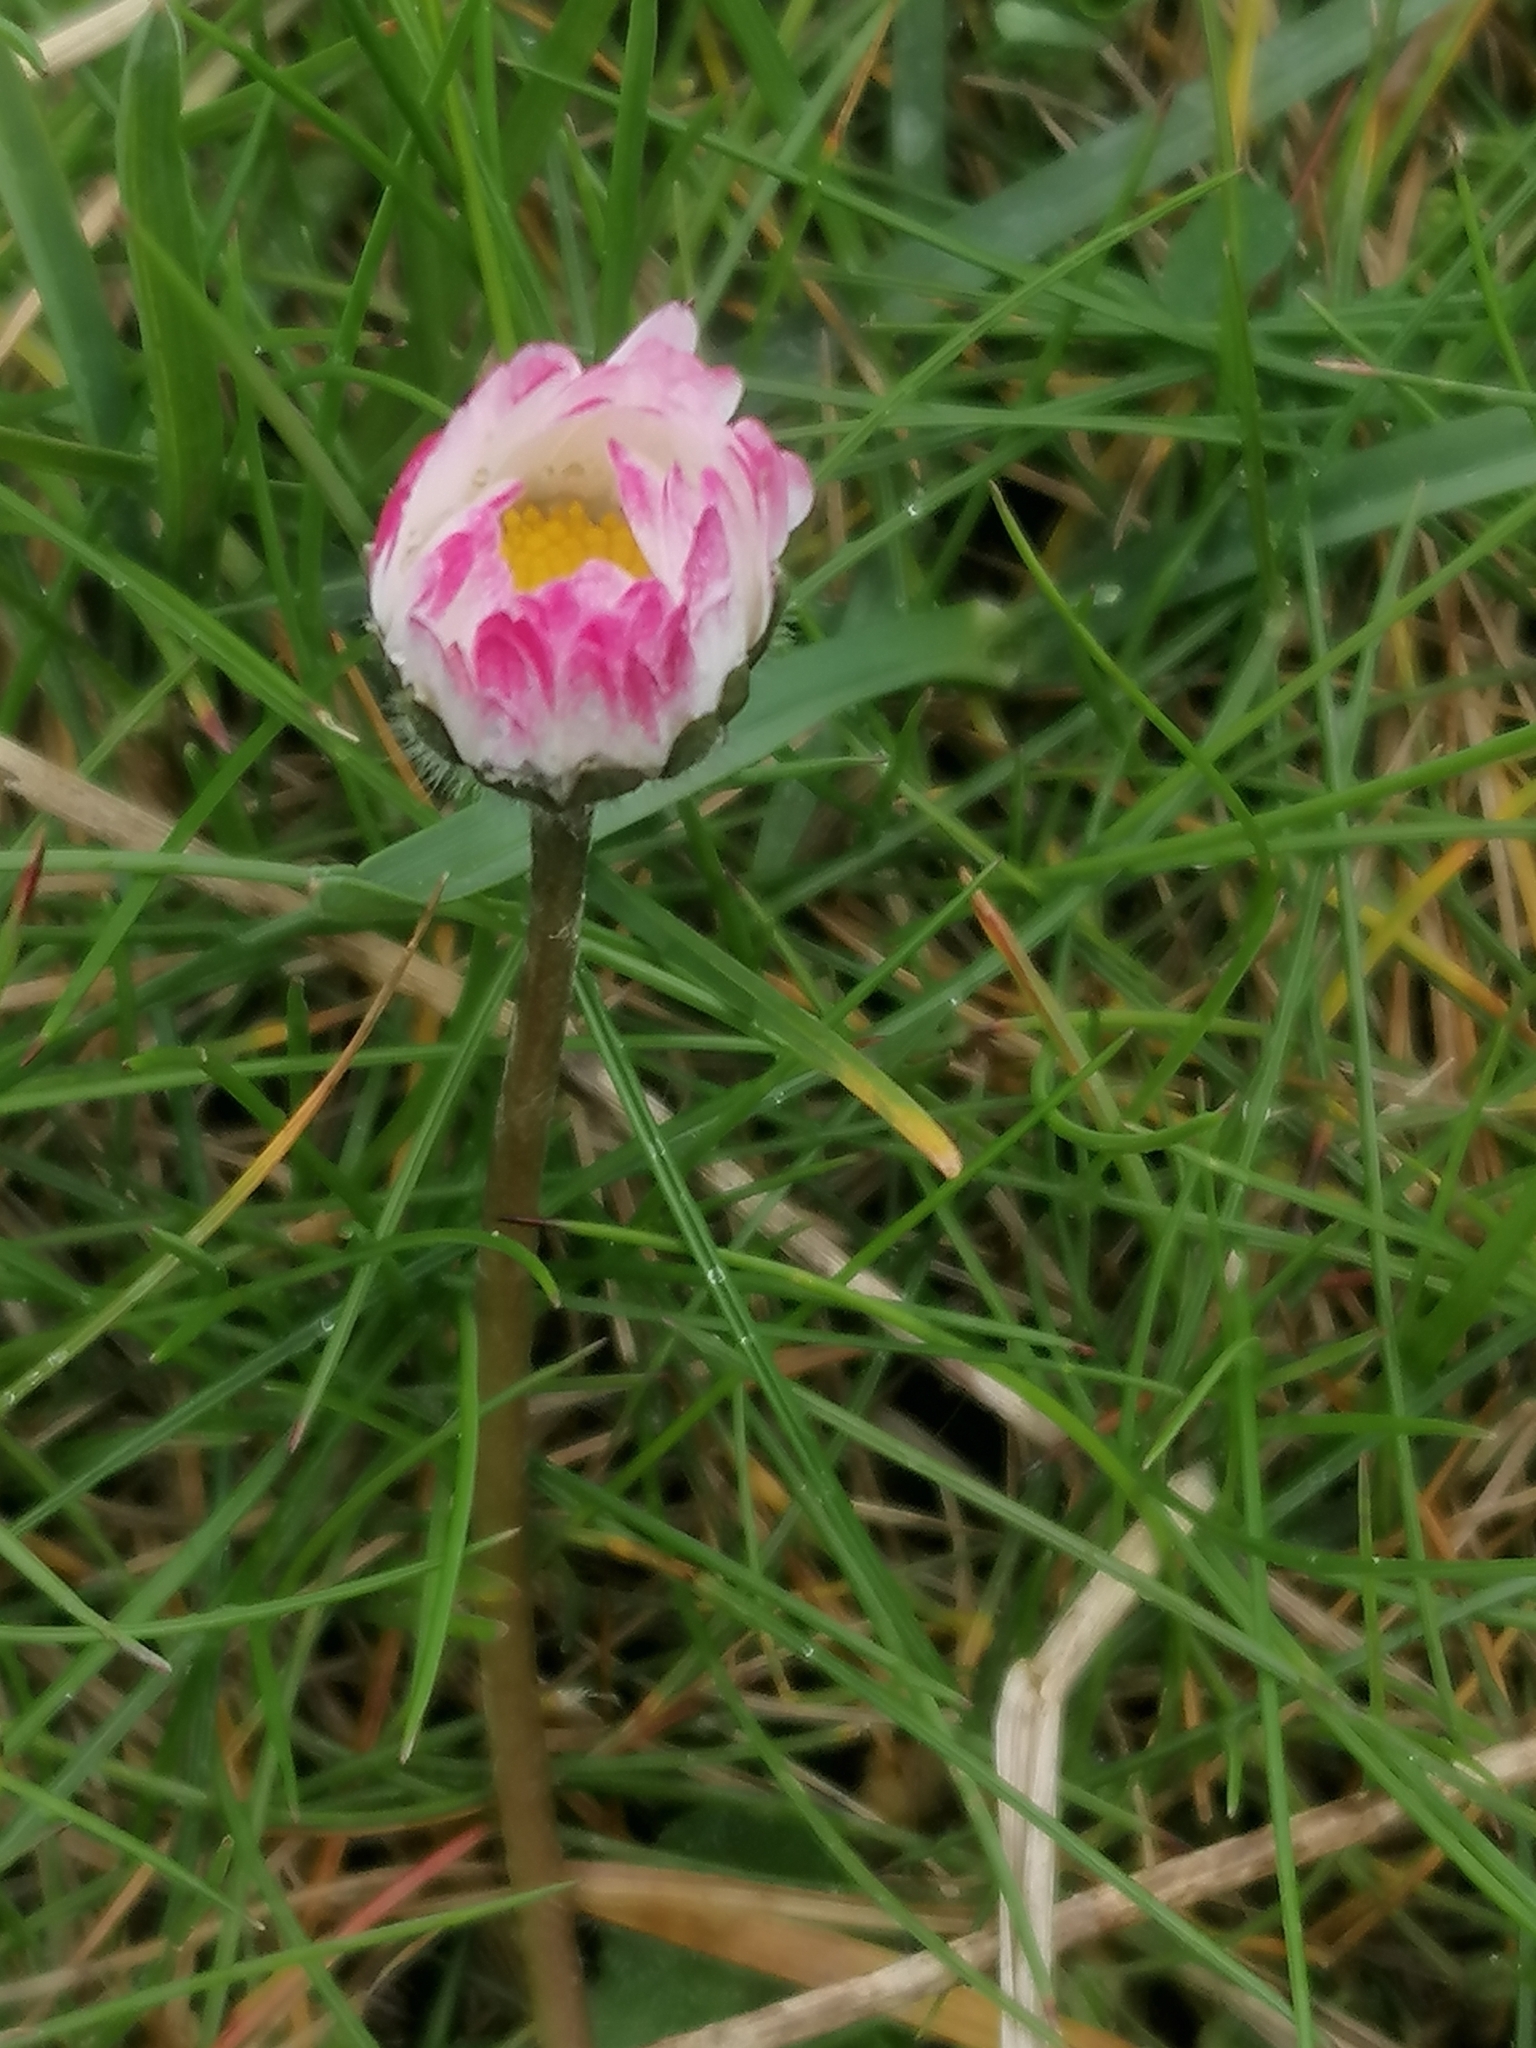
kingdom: Plantae
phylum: Tracheophyta
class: Magnoliopsida
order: Asterales
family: Asteraceae
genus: Bellis
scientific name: Bellis perennis
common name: Lawndaisy
